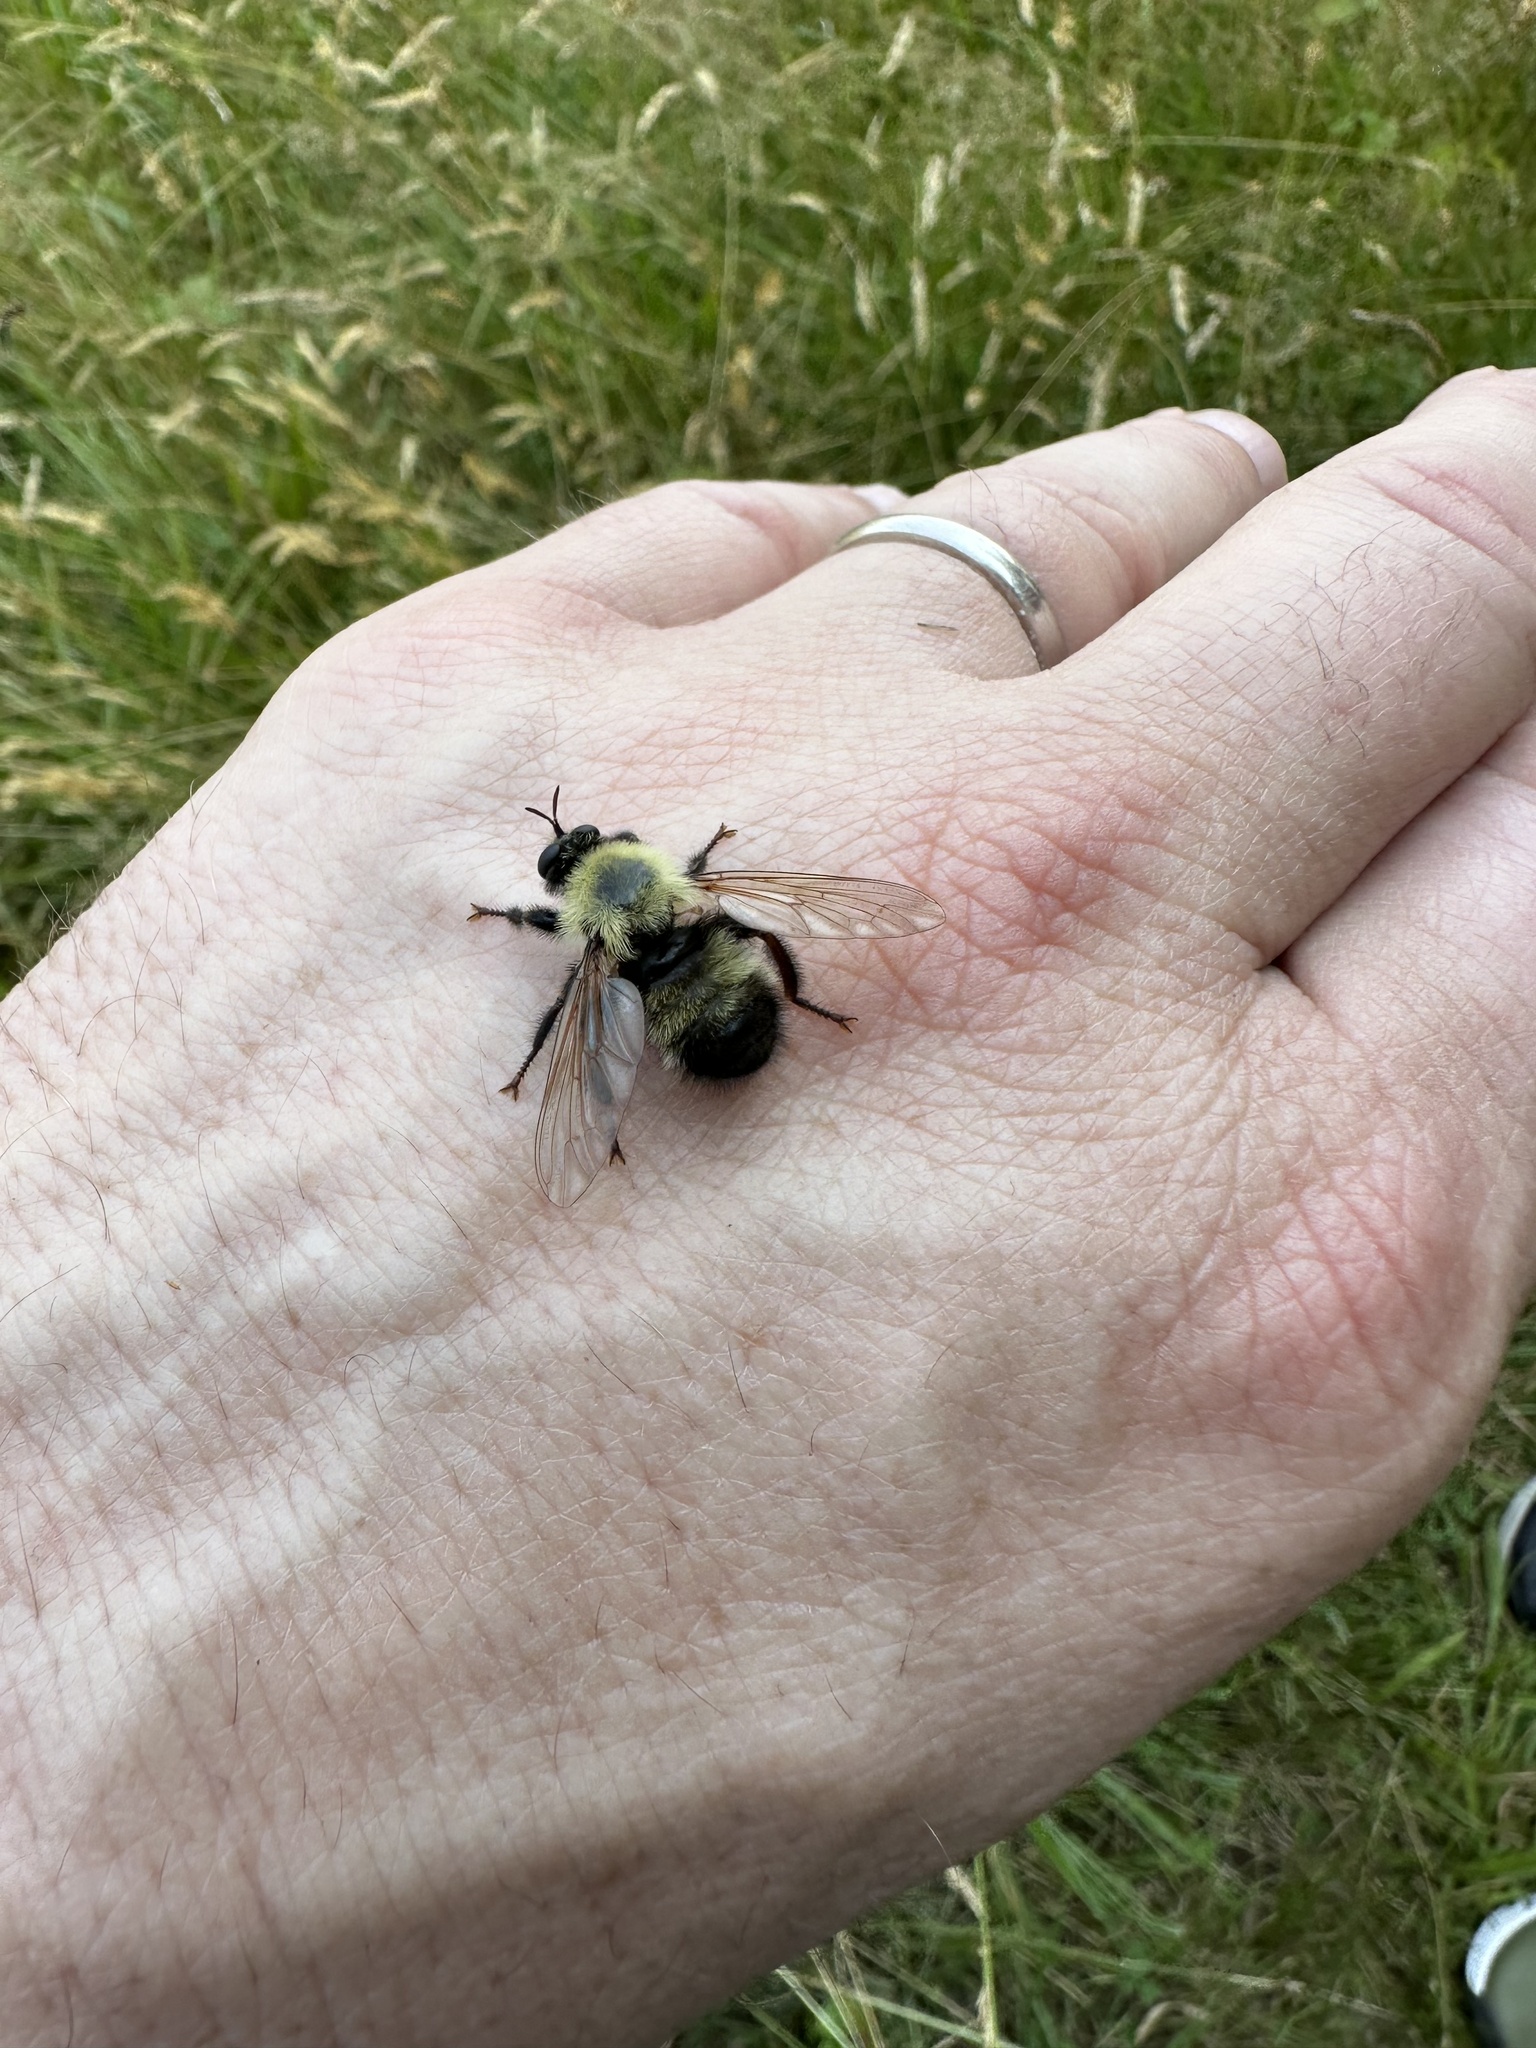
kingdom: Animalia
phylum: Arthropoda
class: Insecta
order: Diptera
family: Asilidae
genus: Laphria
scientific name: Laphria thoracica
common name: Bumble bee mimic robber fly
